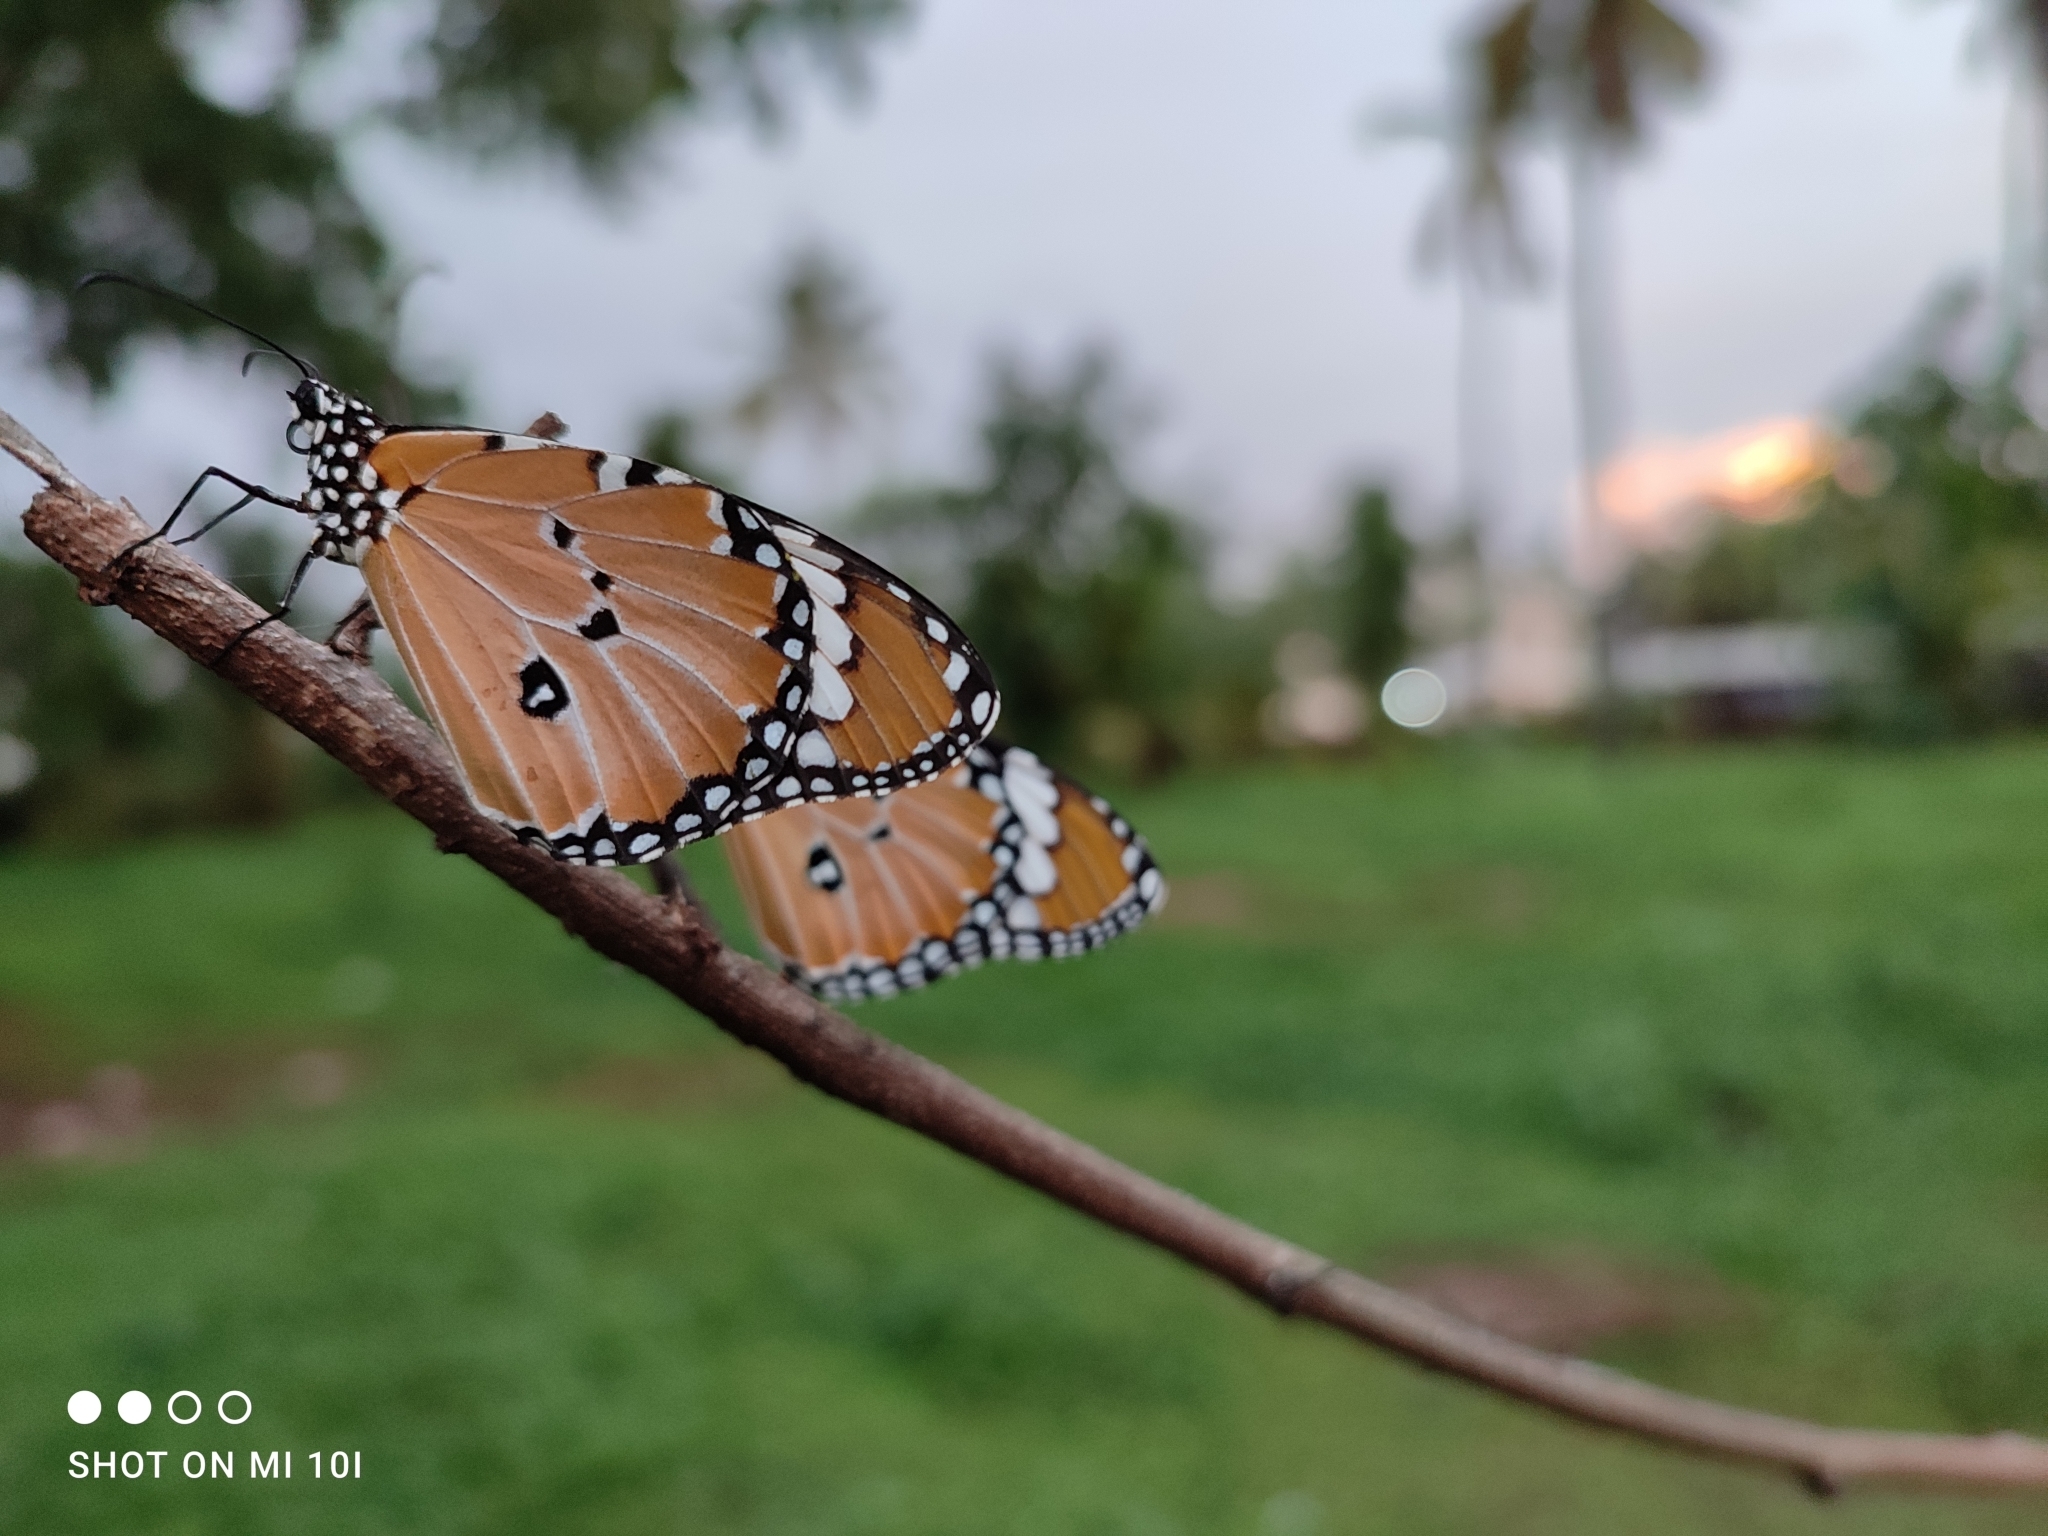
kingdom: Animalia
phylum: Arthropoda
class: Insecta
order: Lepidoptera
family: Nymphalidae
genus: Danaus
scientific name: Danaus chrysippus
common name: Plain tiger
